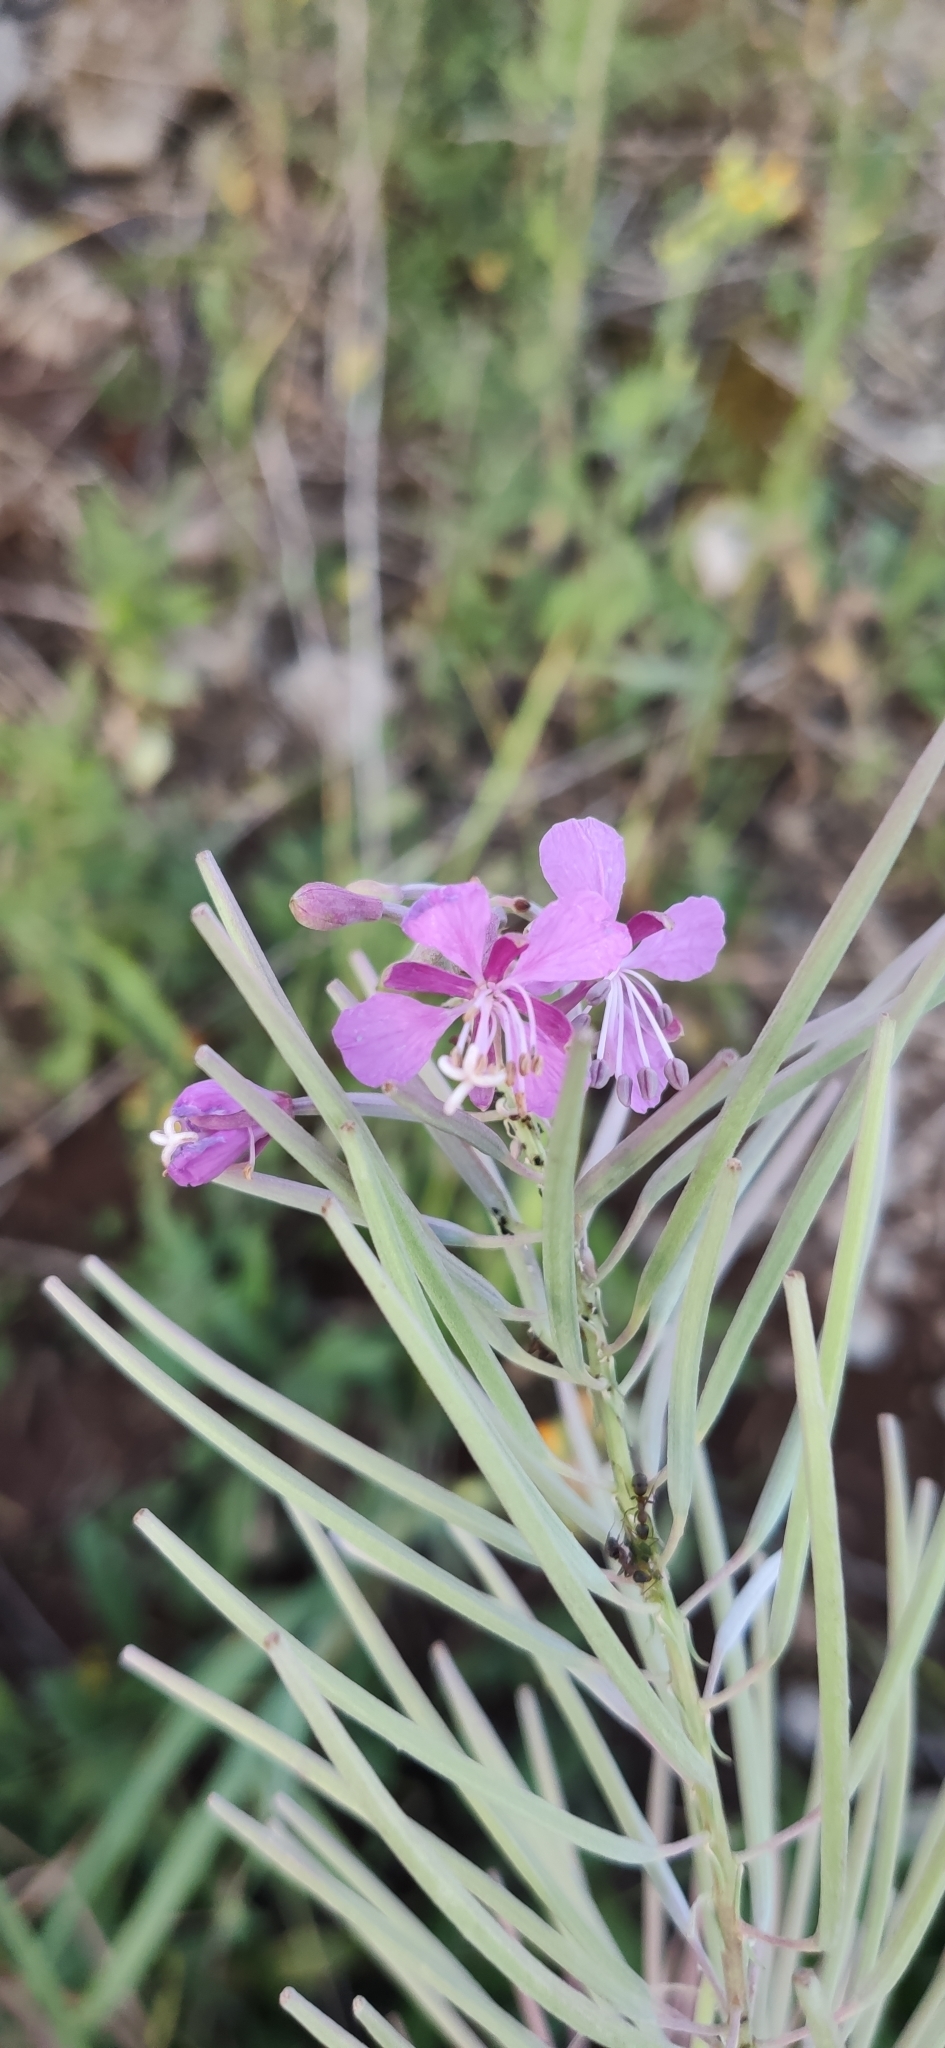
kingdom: Plantae
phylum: Tracheophyta
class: Magnoliopsida
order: Myrtales
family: Onagraceae
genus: Chamaenerion
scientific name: Chamaenerion angustifolium
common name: Fireweed
